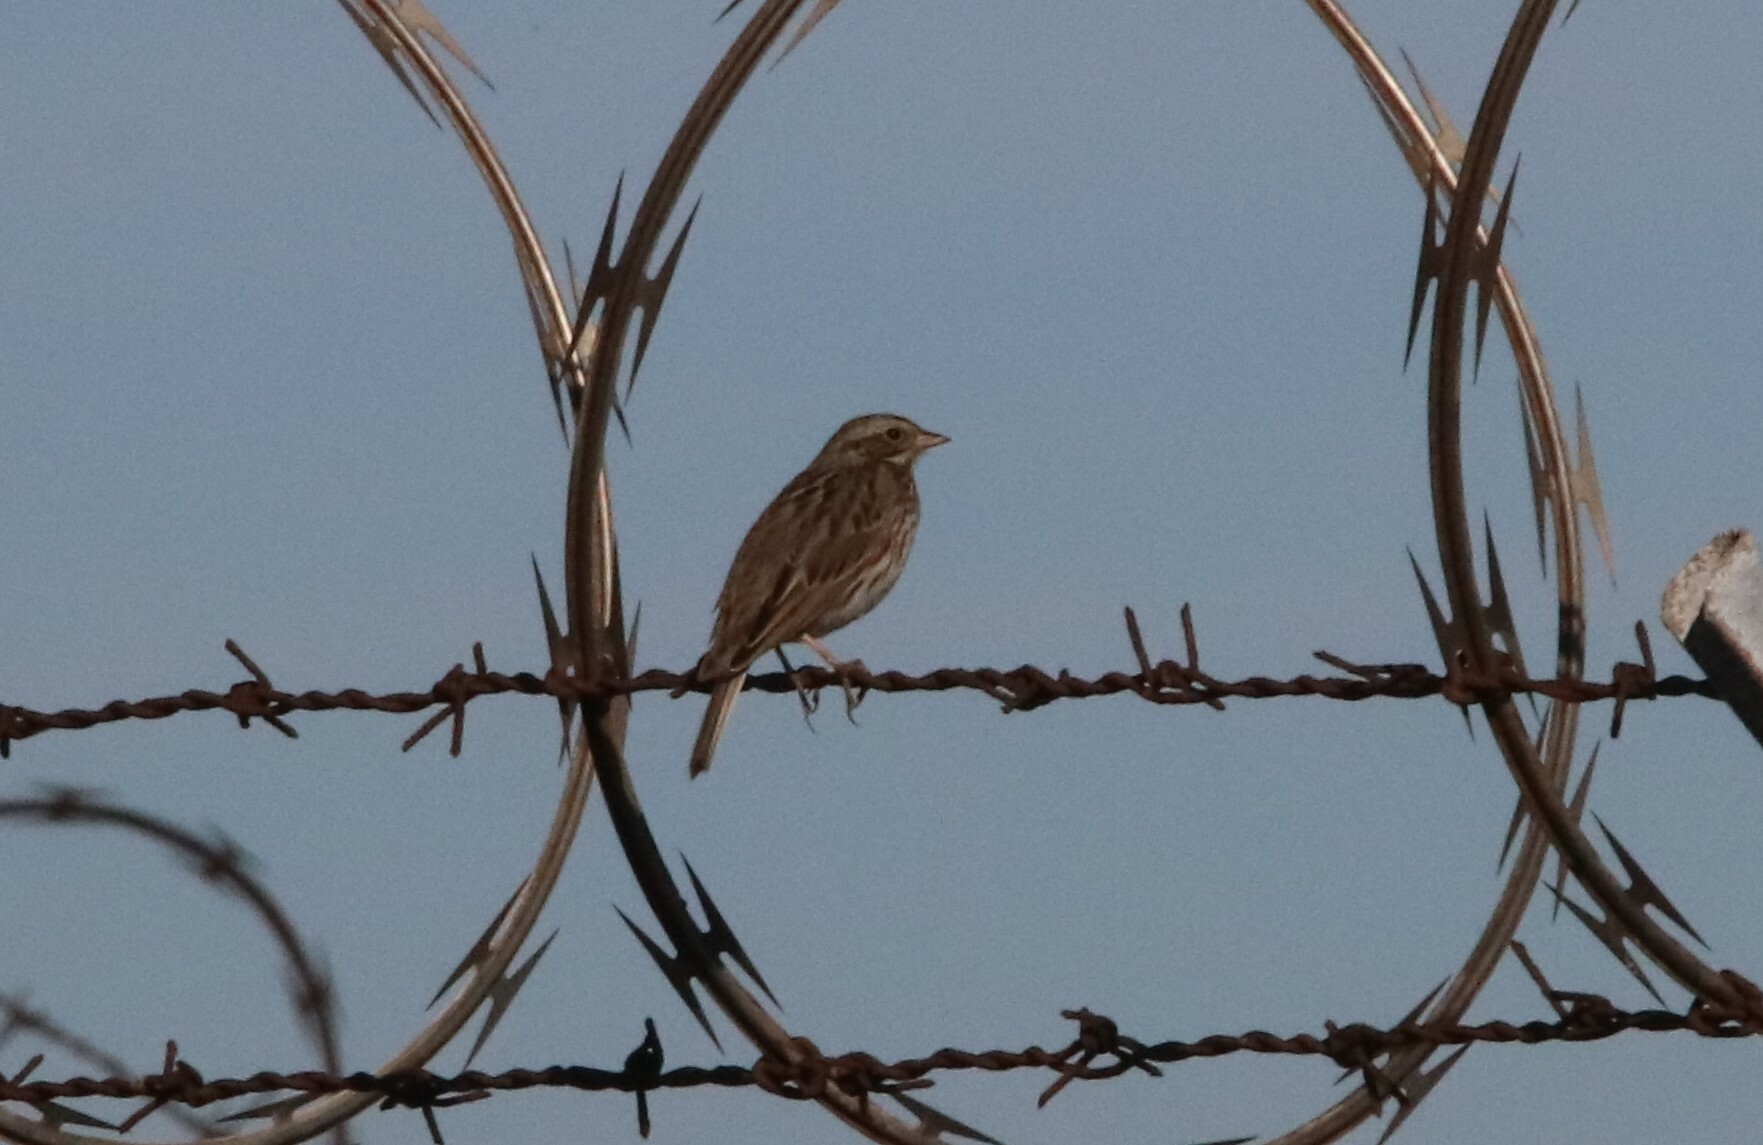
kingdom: Animalia
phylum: Chordata
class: Aves
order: Passeriformes
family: Passerellidae
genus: Passerculus
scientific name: Passerculus sandwichensis
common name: Savannah sparrow
